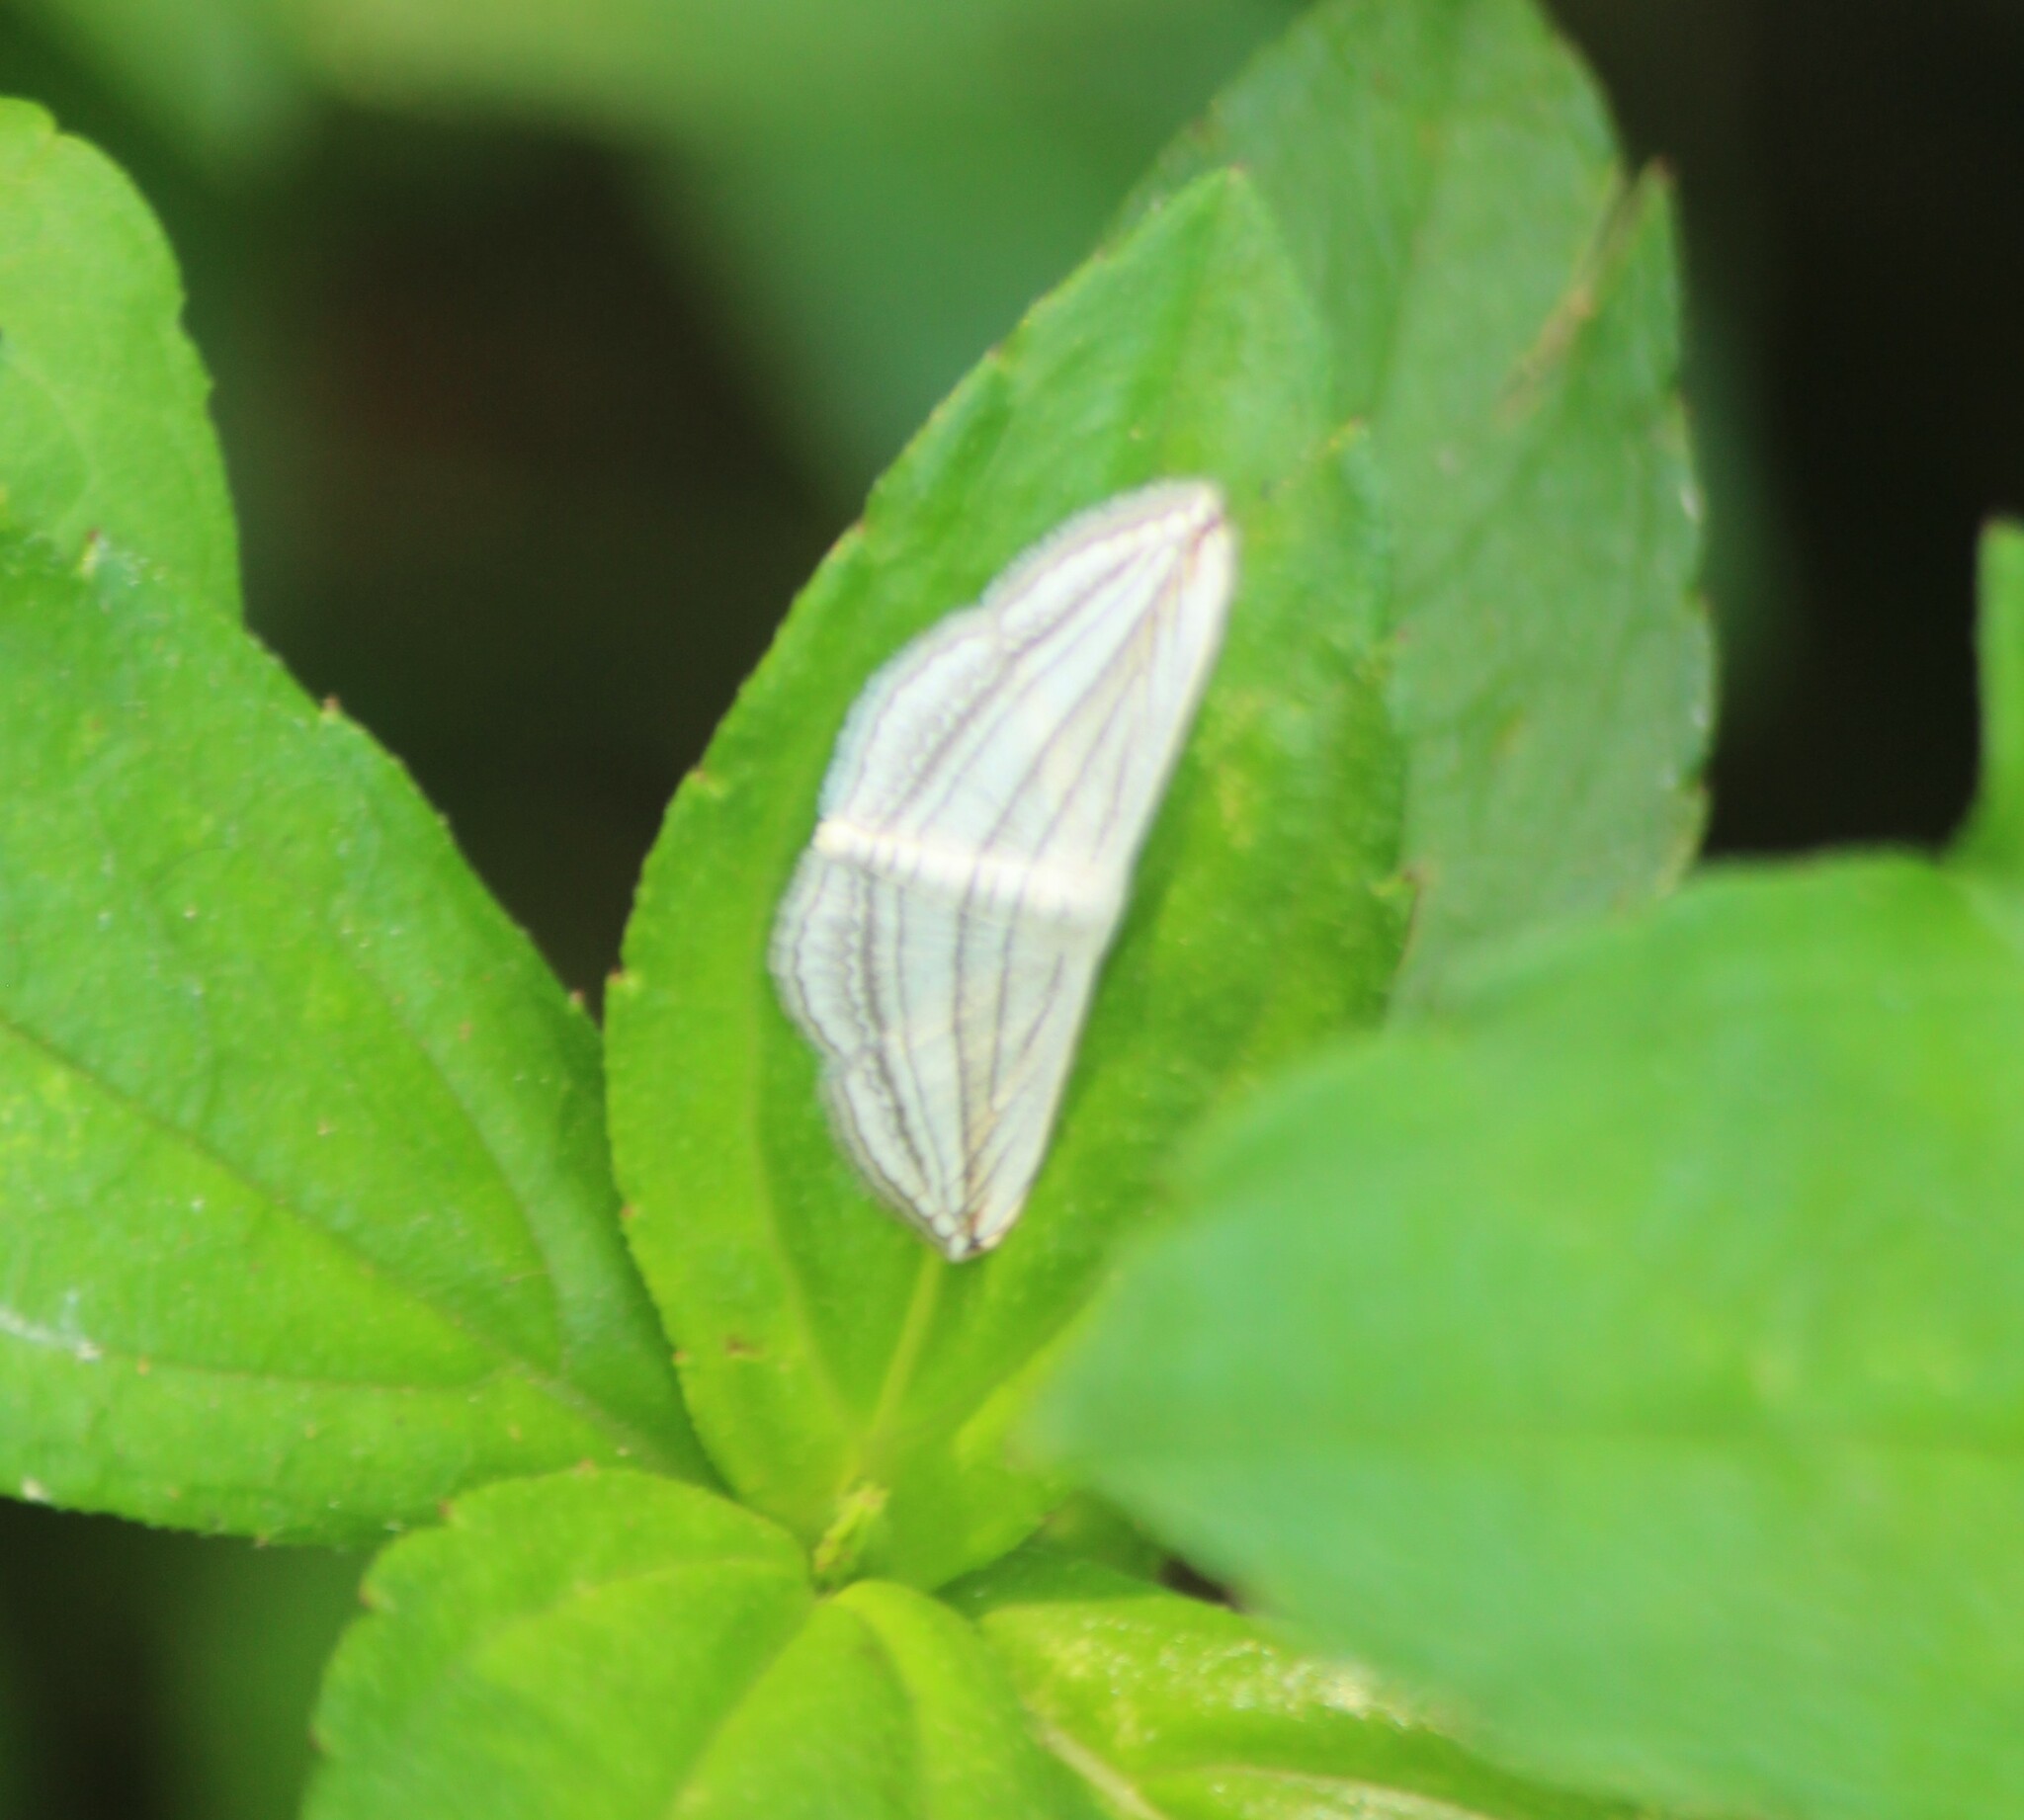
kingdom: Animalia
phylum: Arthropoda
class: Insecta
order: Lepidoptera
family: Geometridae
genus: Scopula
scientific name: Scopula opicata
